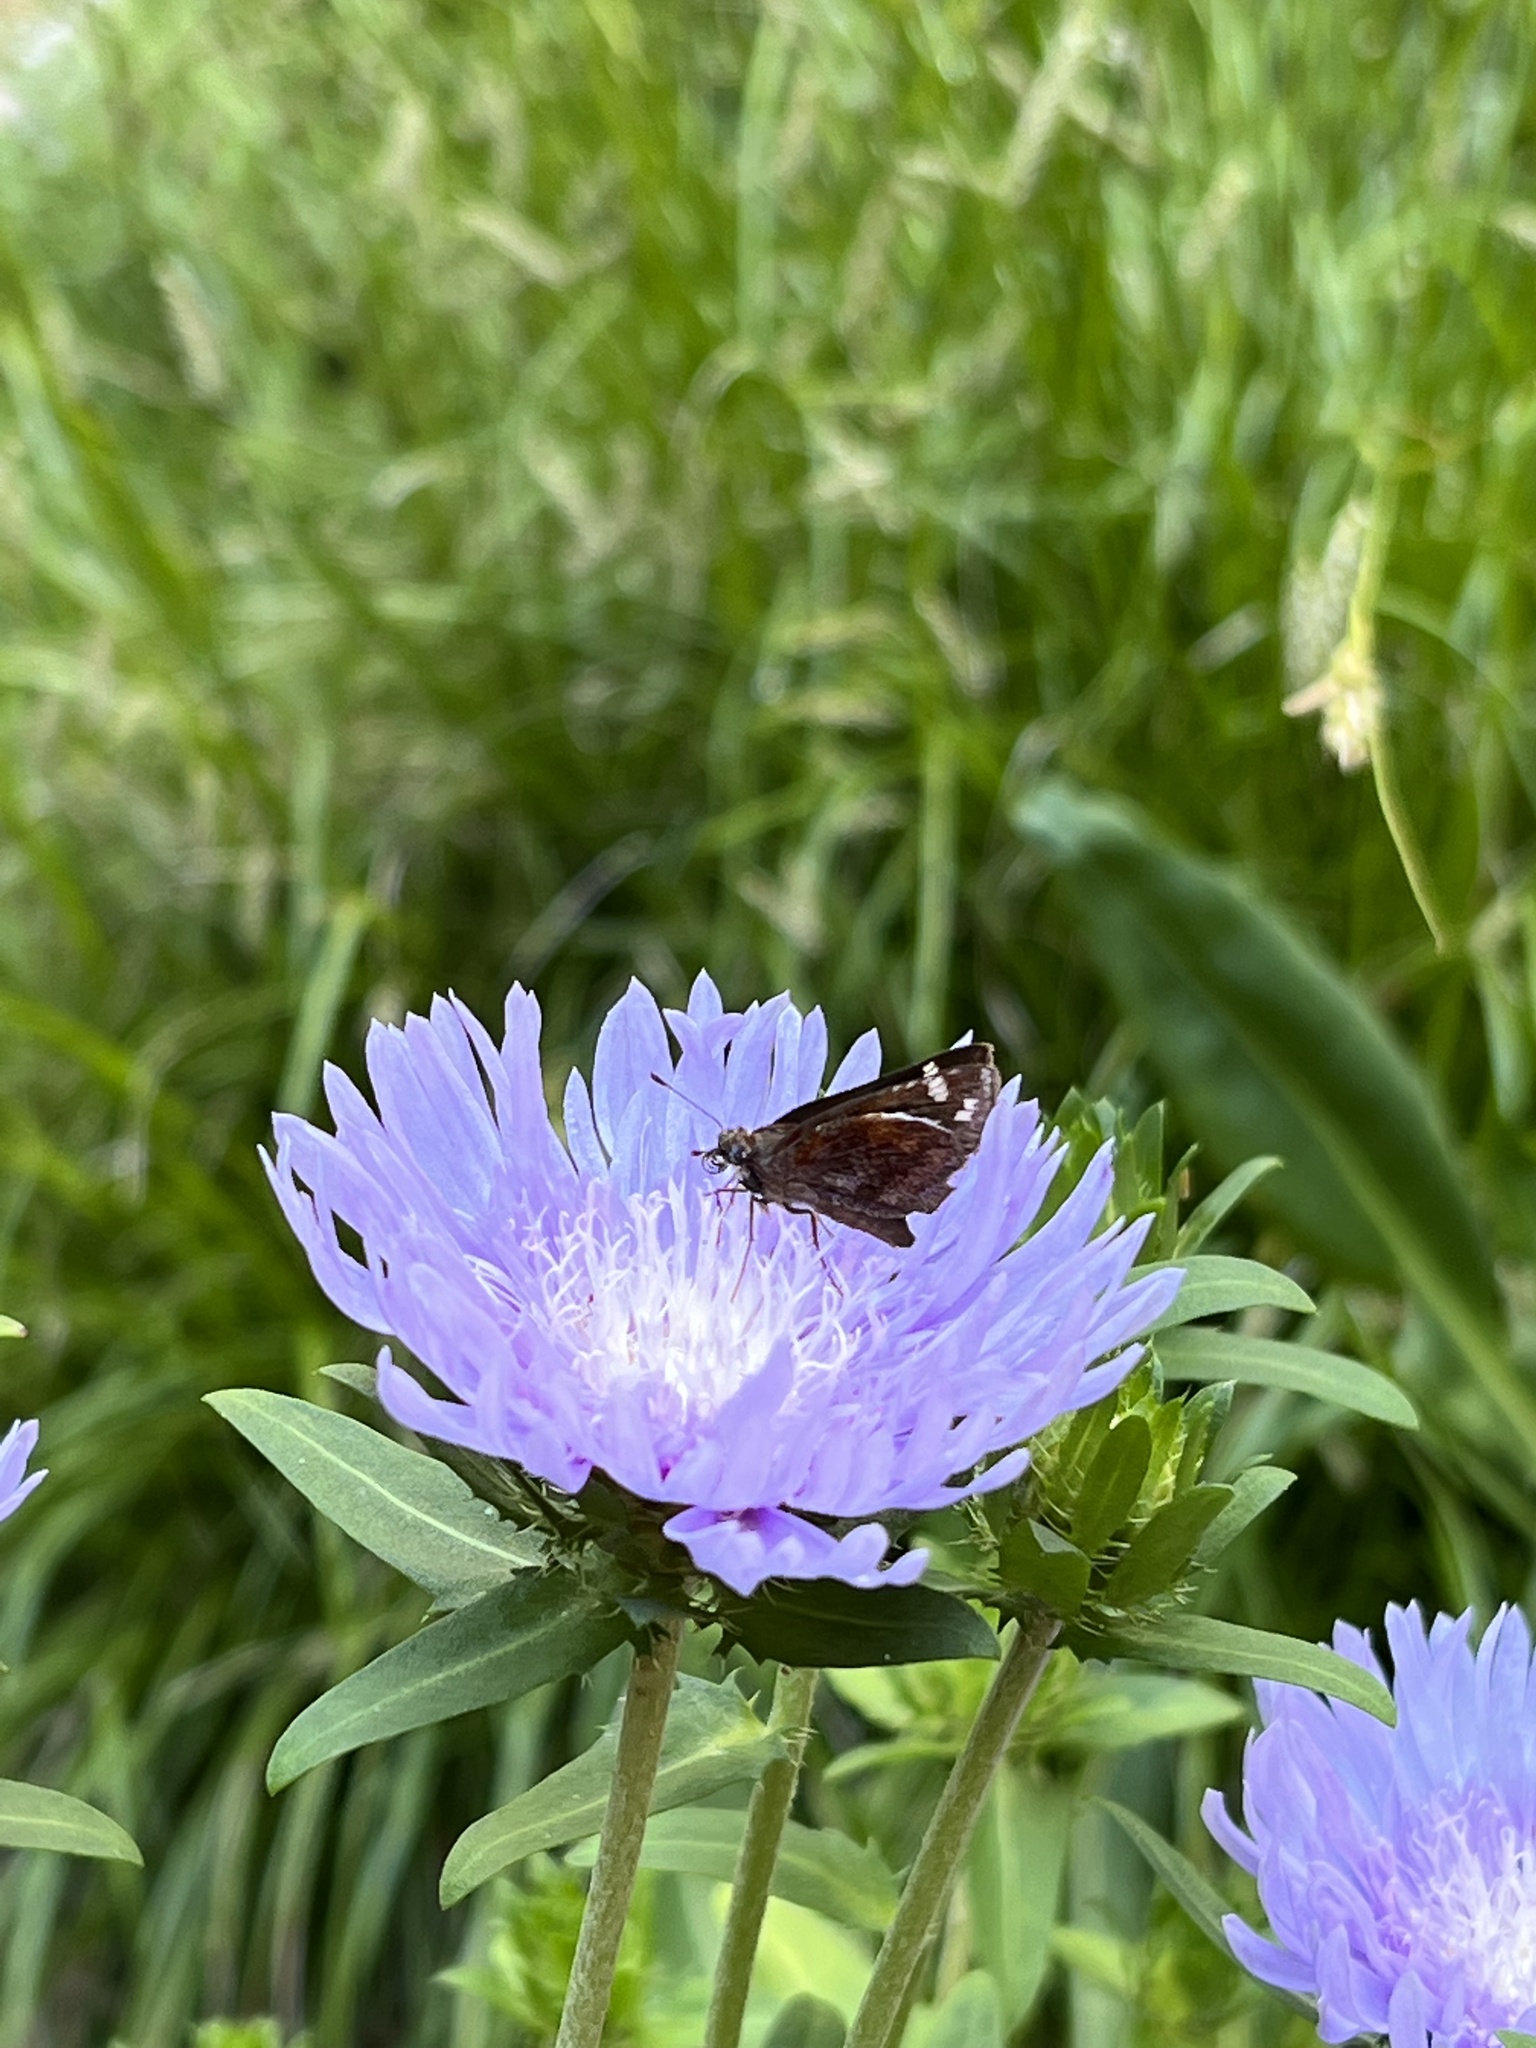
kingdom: Animalia
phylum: Arthropoda
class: Insecta
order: Lepidoptera
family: Hesperiidae
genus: Lon
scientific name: Lon zabulon
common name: Zabulon skipper
